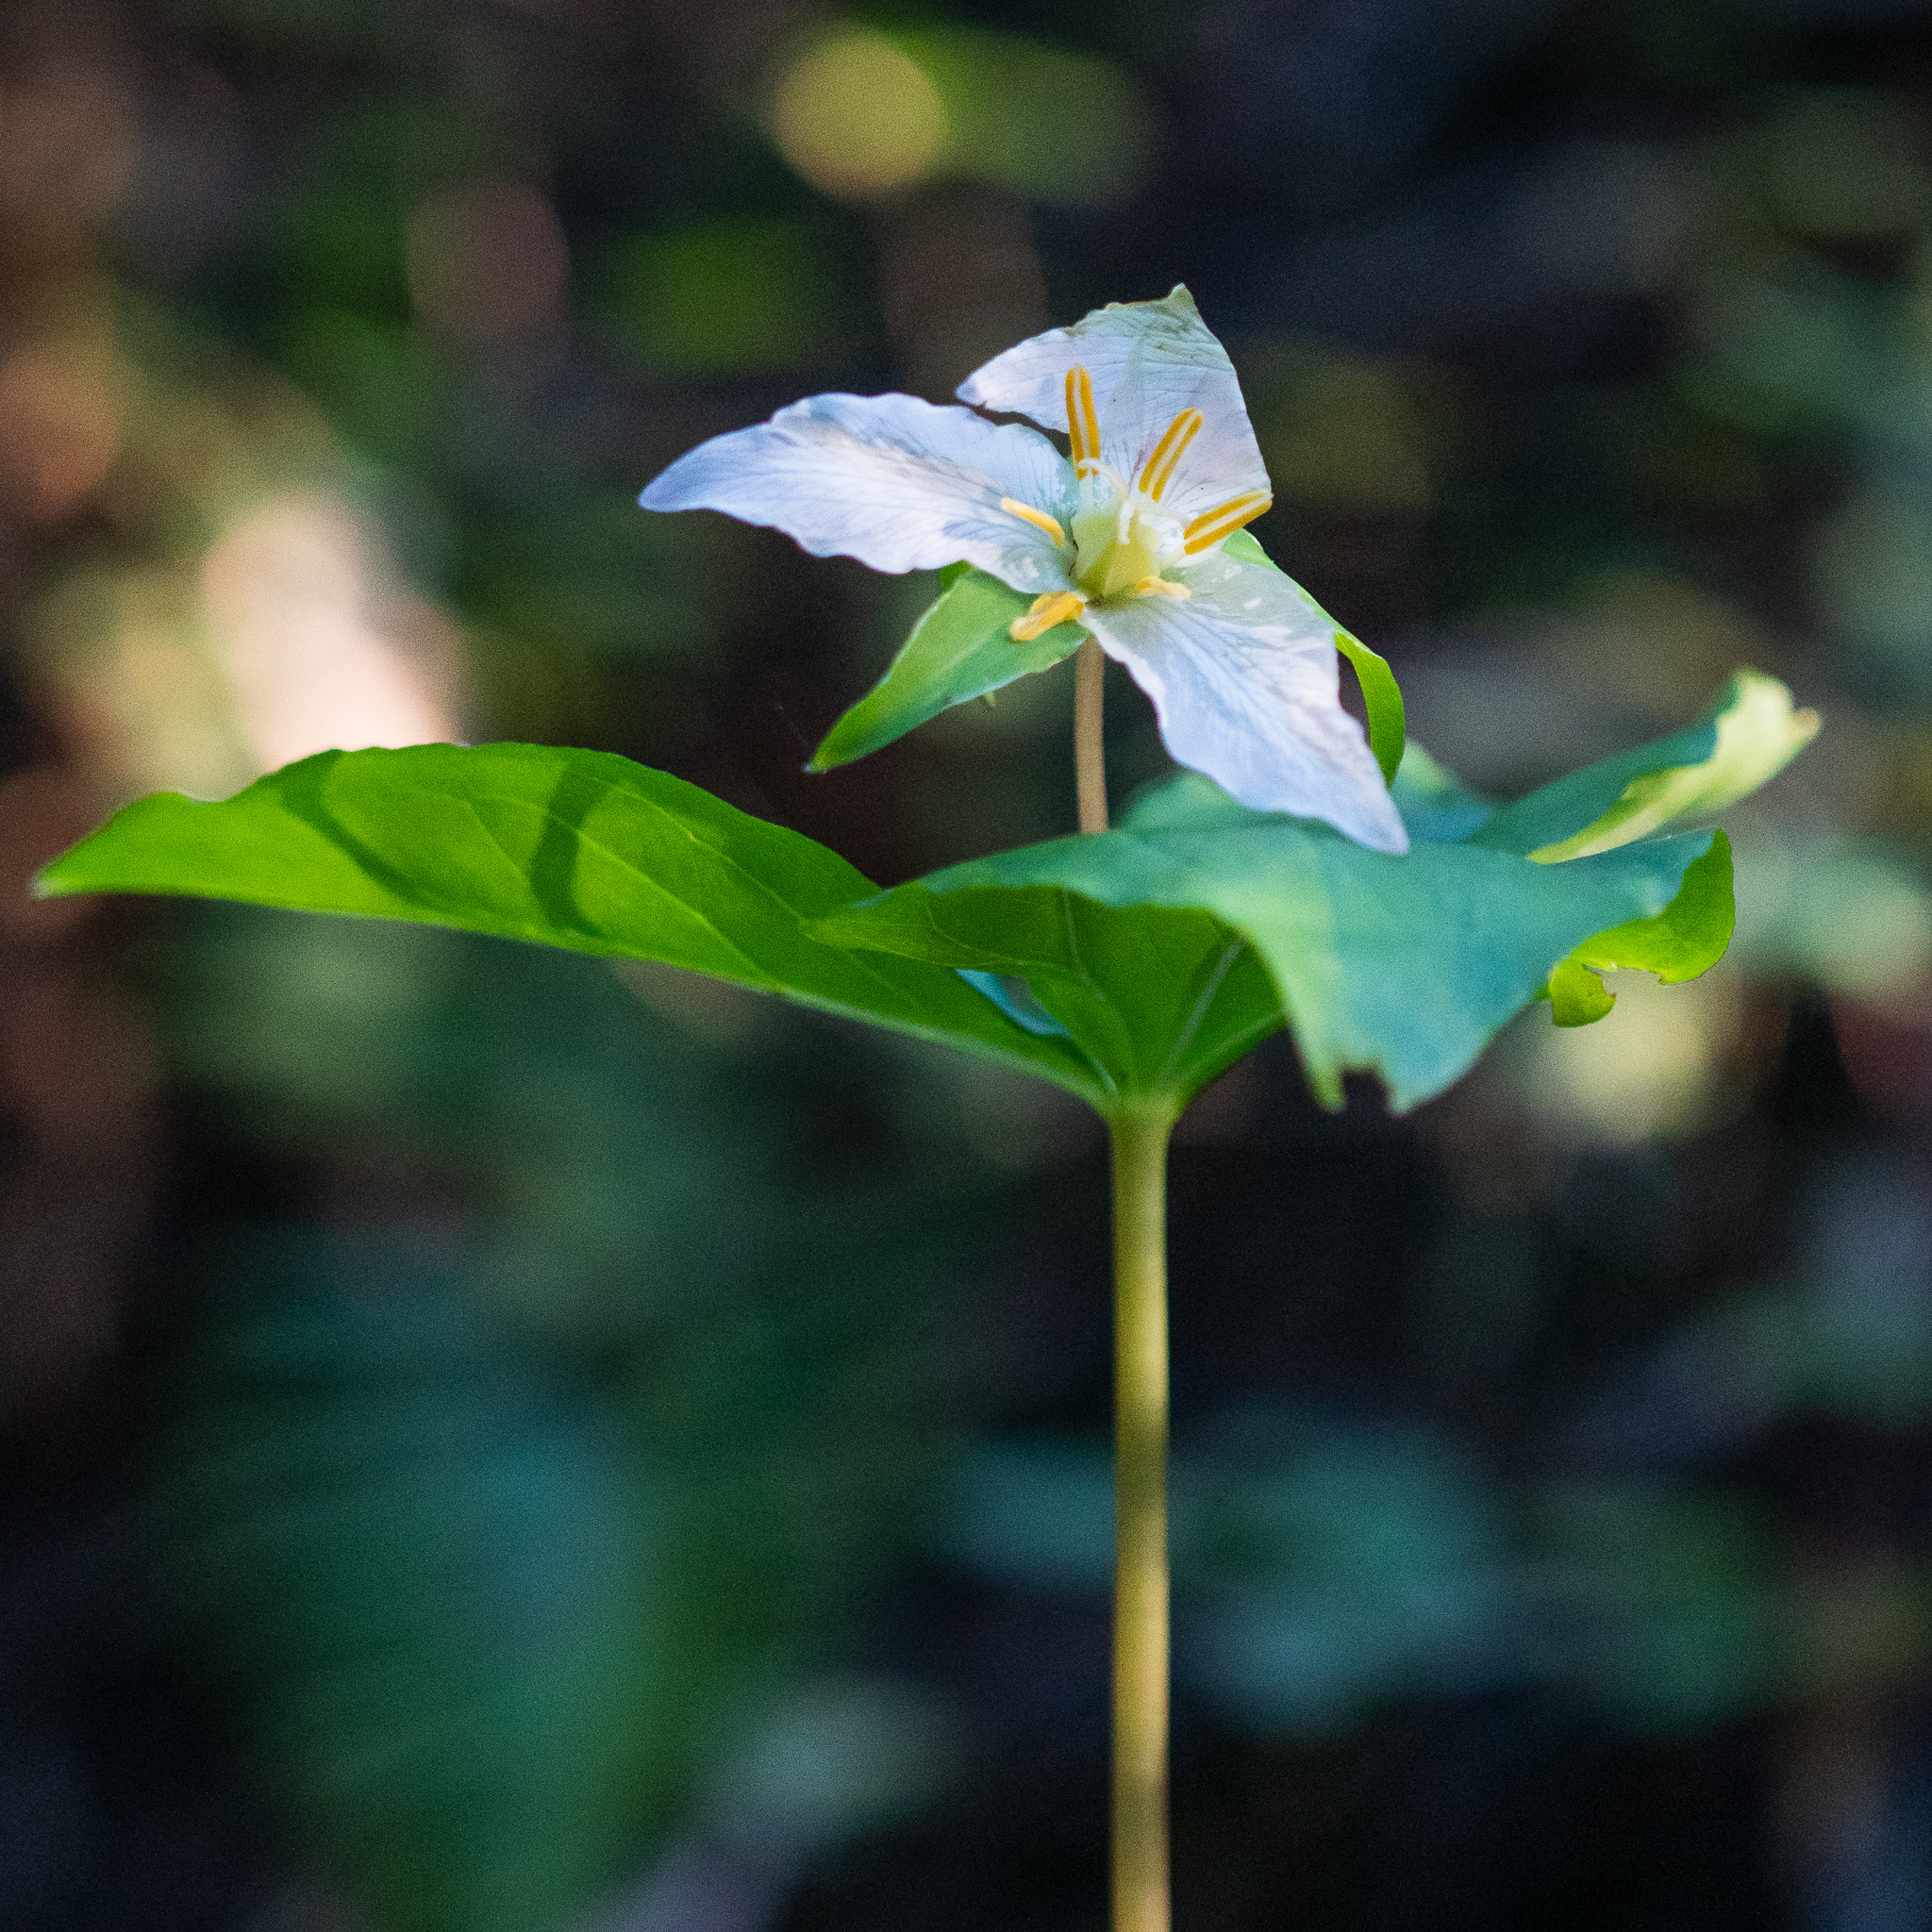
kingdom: Plantae
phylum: Tracheophyta
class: Liliopsida
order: Liliales
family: Melanthiaceae
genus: Trillium
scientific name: Trillium ovatum
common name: Pacific trillium
